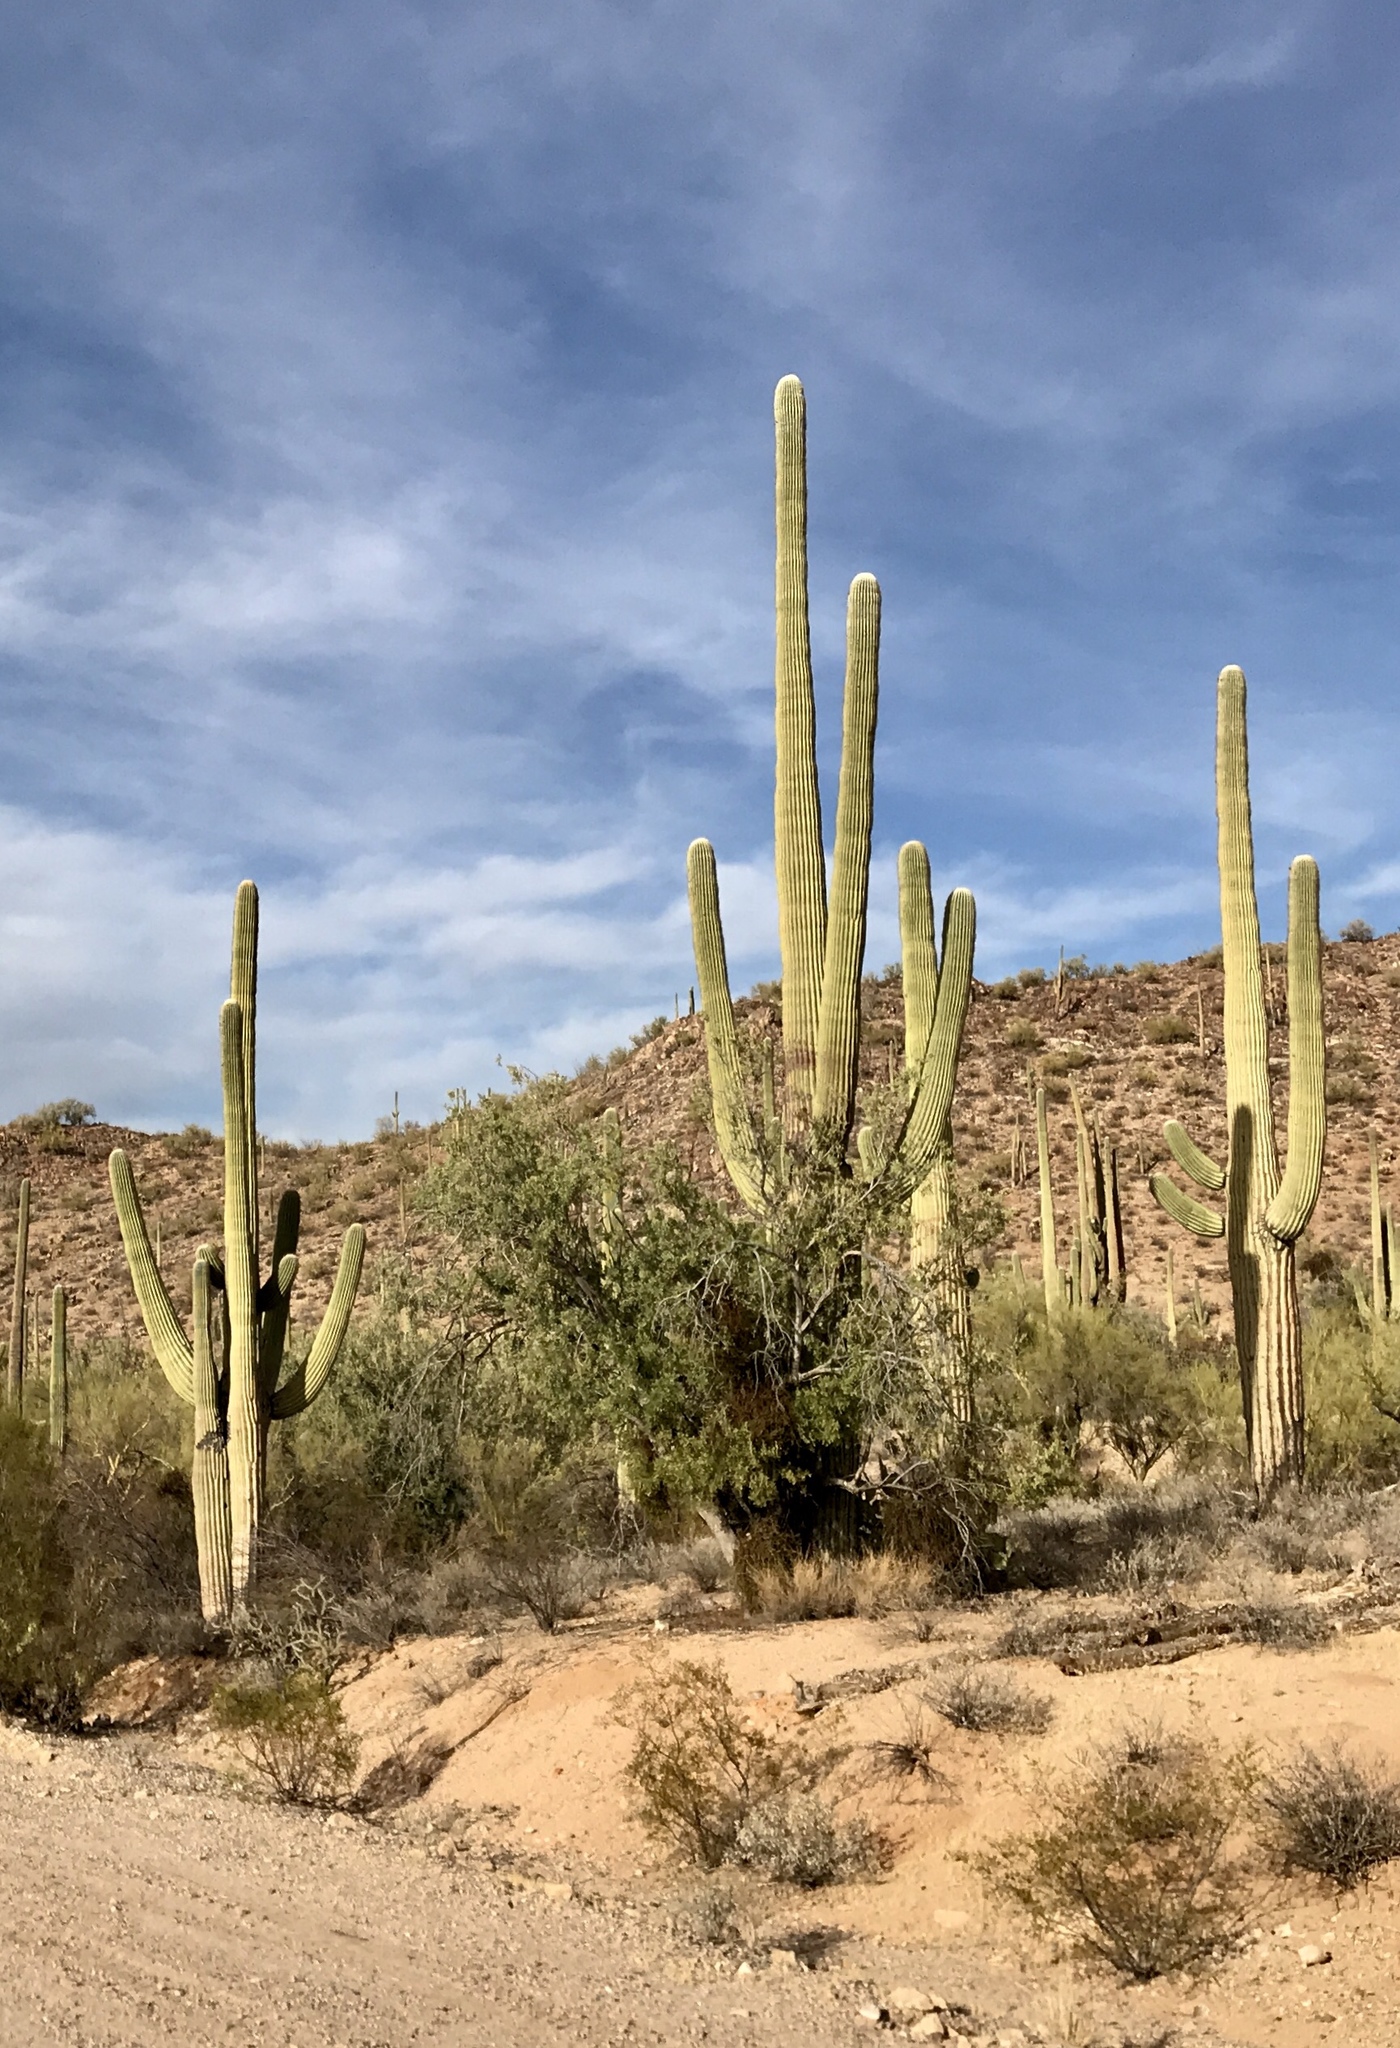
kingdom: Plantae
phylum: Tracheophyta
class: Magnoliopsida
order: Caryophyllales
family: Cactaceae
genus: Carnegiea
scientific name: Carnegiea gigantea
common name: Saguaro
